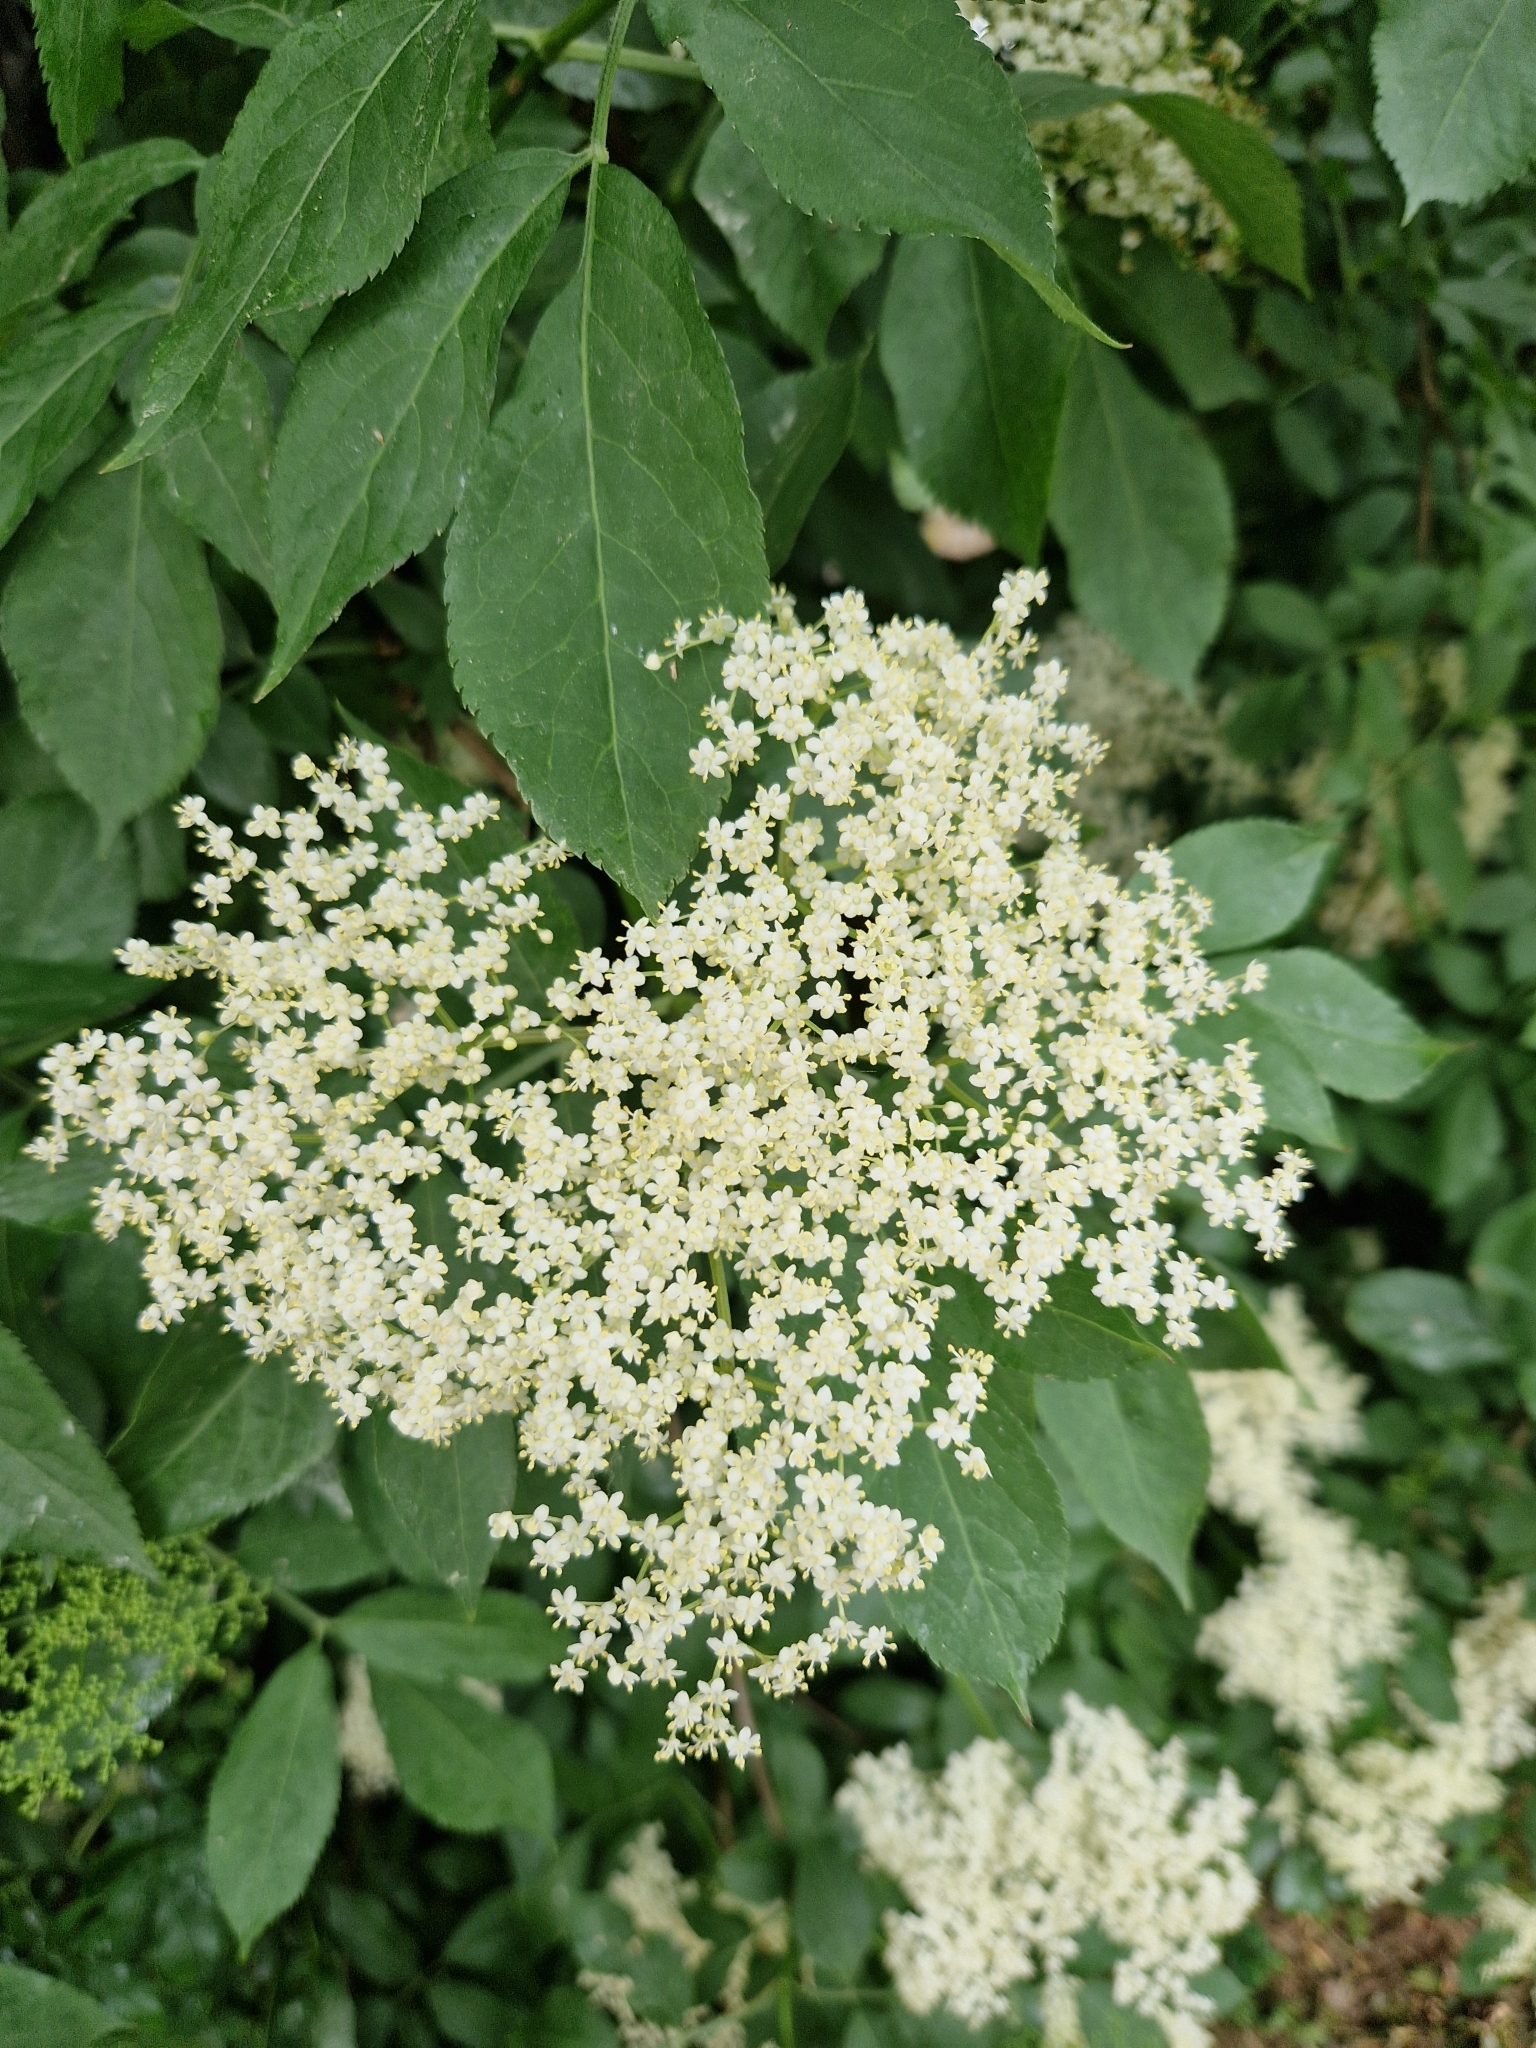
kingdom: Plantae
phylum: Tracheophyta
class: Magnoliopsida
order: Dipsacales
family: Viburnaceae
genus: Sambucus
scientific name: Sambucus nigra
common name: Elder
